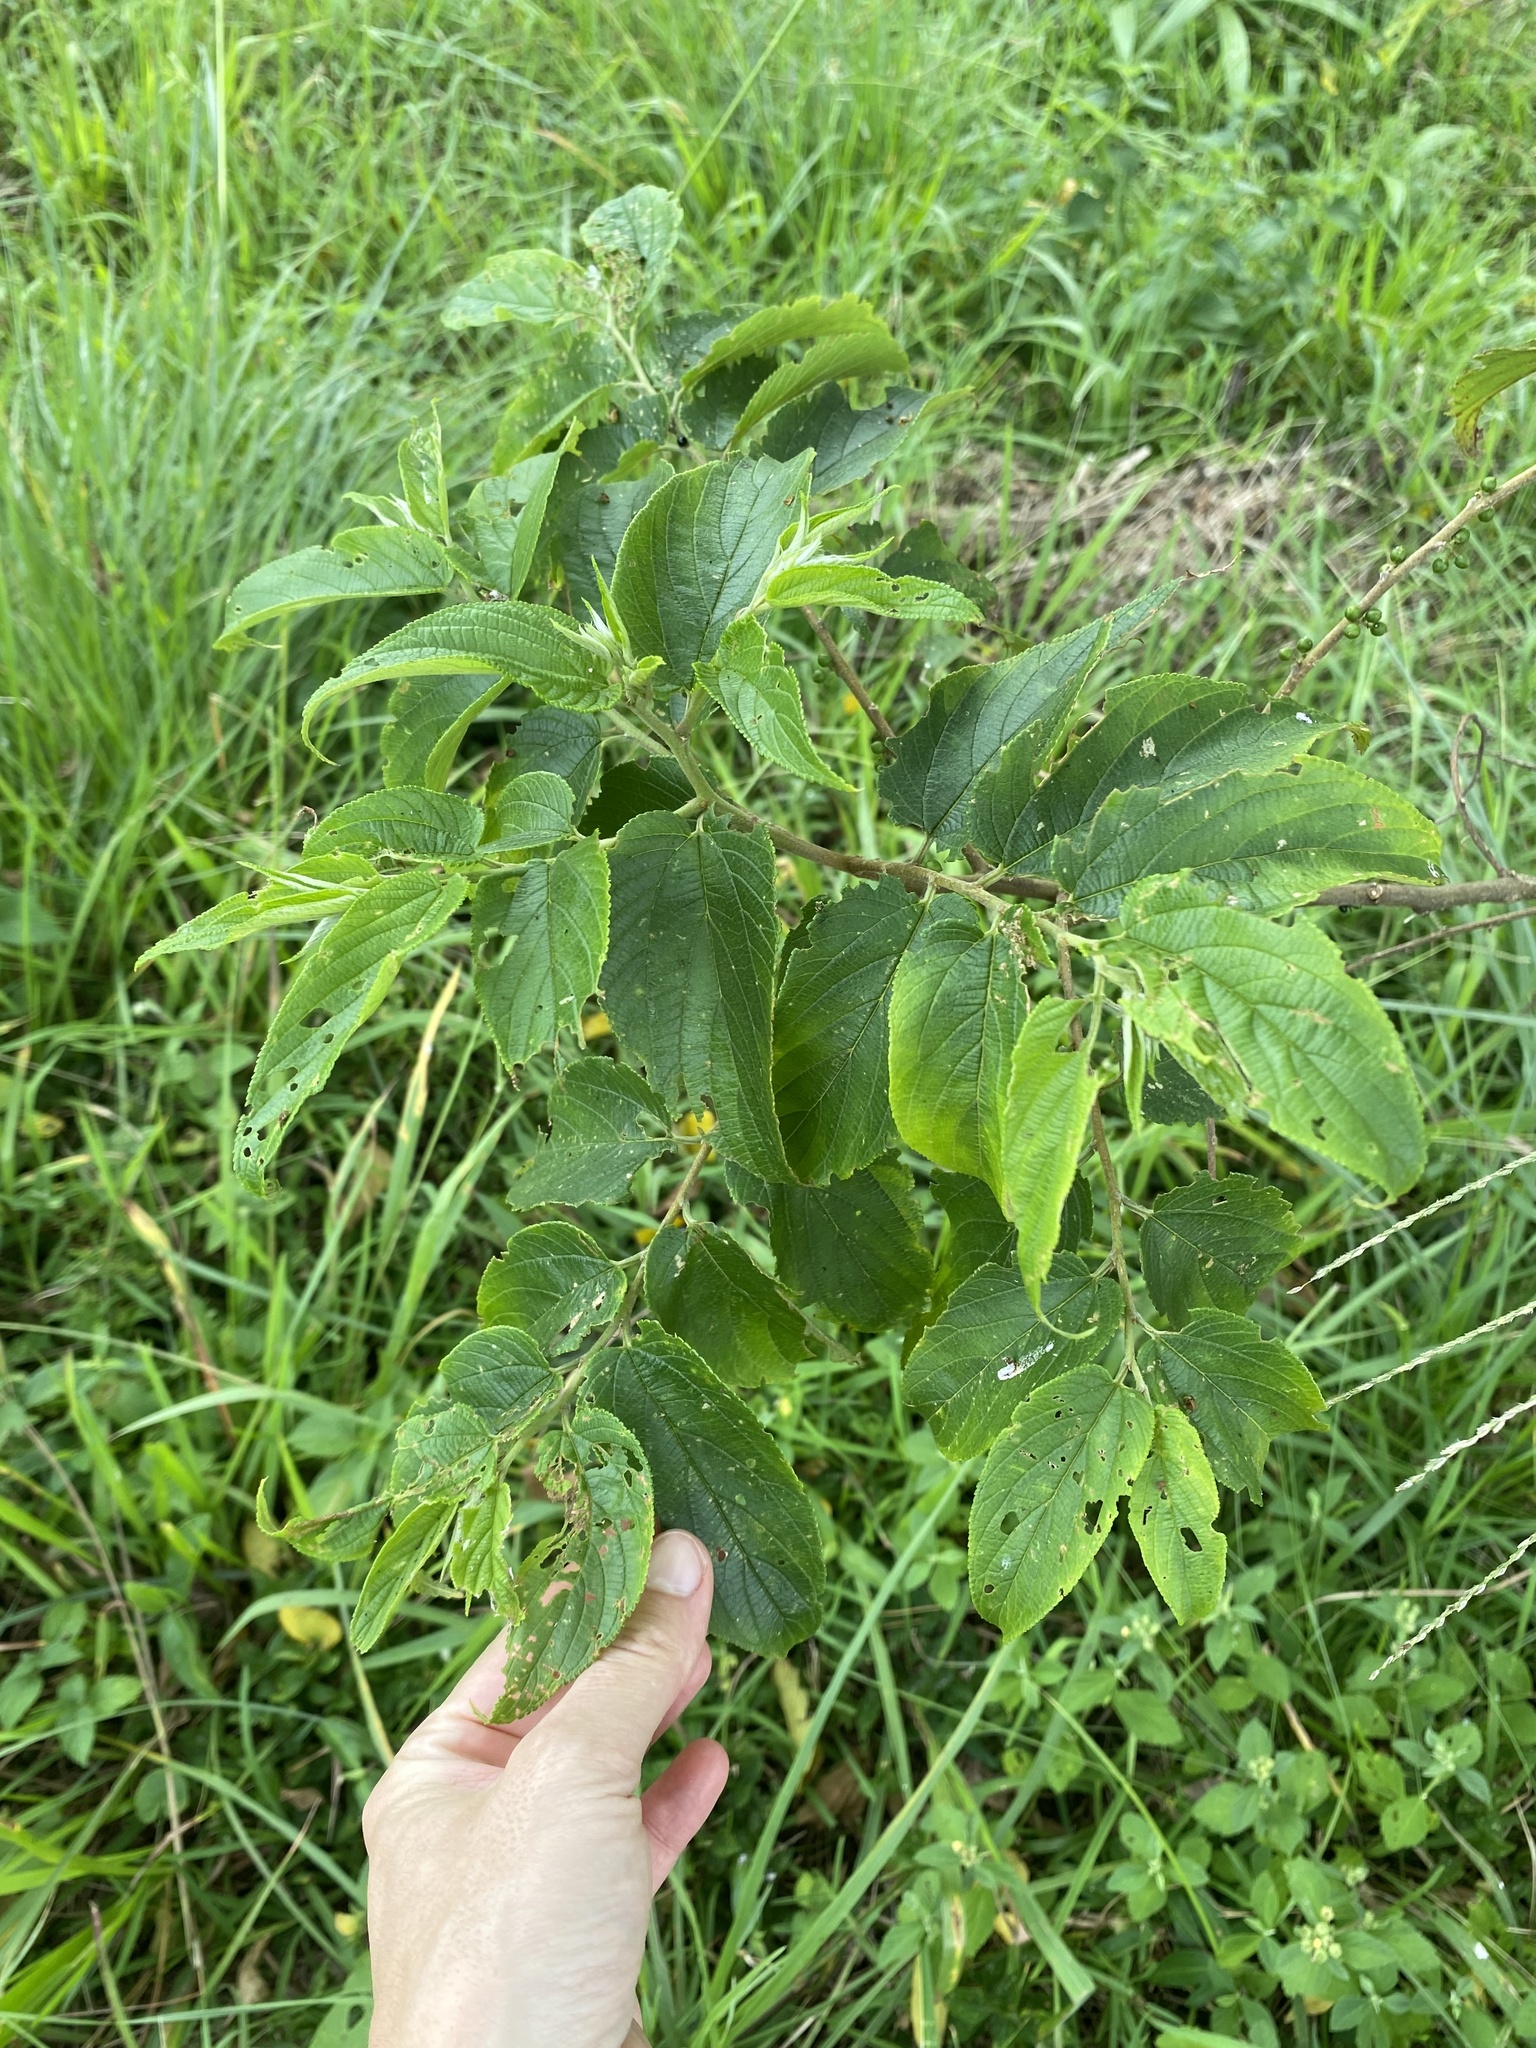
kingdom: Plantae
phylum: Tracheophyta
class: Magnoliopsida
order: Rosales
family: Cannabaceae
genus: Trema
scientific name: Trema orientale
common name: Indian charcoal tree
